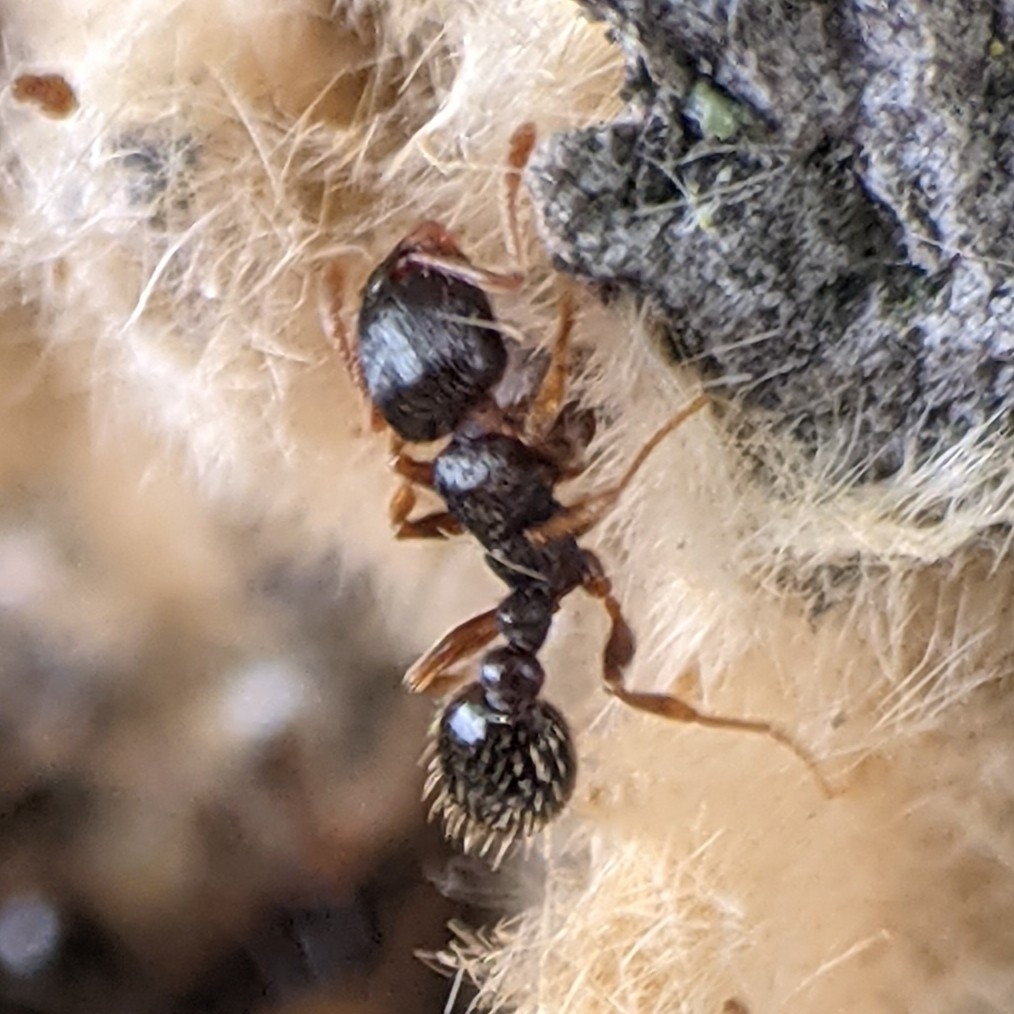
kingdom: Animalia
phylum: Arthropoda
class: Insecta
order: Hymenoptera
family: Formicidae
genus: Tetramorium
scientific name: Tetramorium immigrans
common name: Pavement ant
